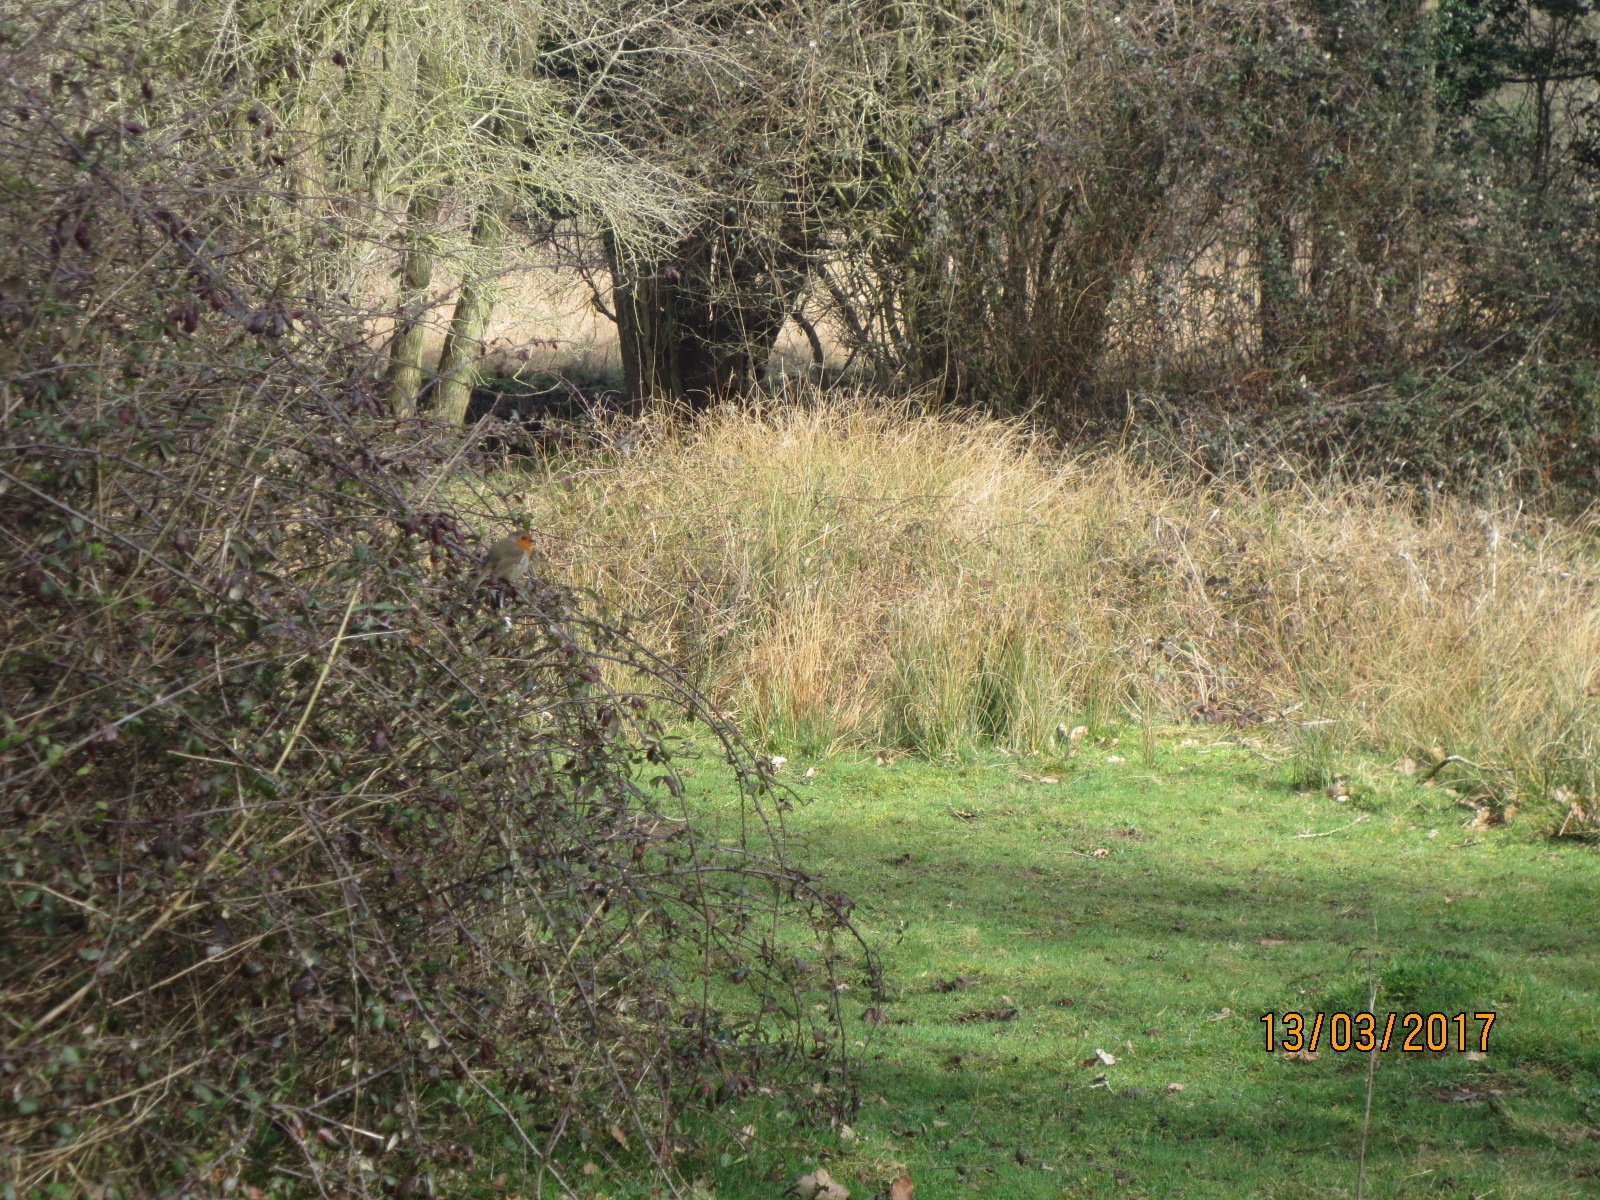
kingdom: Animalia
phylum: Chordata
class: Aves
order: Passeriformes
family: Muscicapidae
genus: Erithacus
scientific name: Erithacus rubecula
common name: European robin
